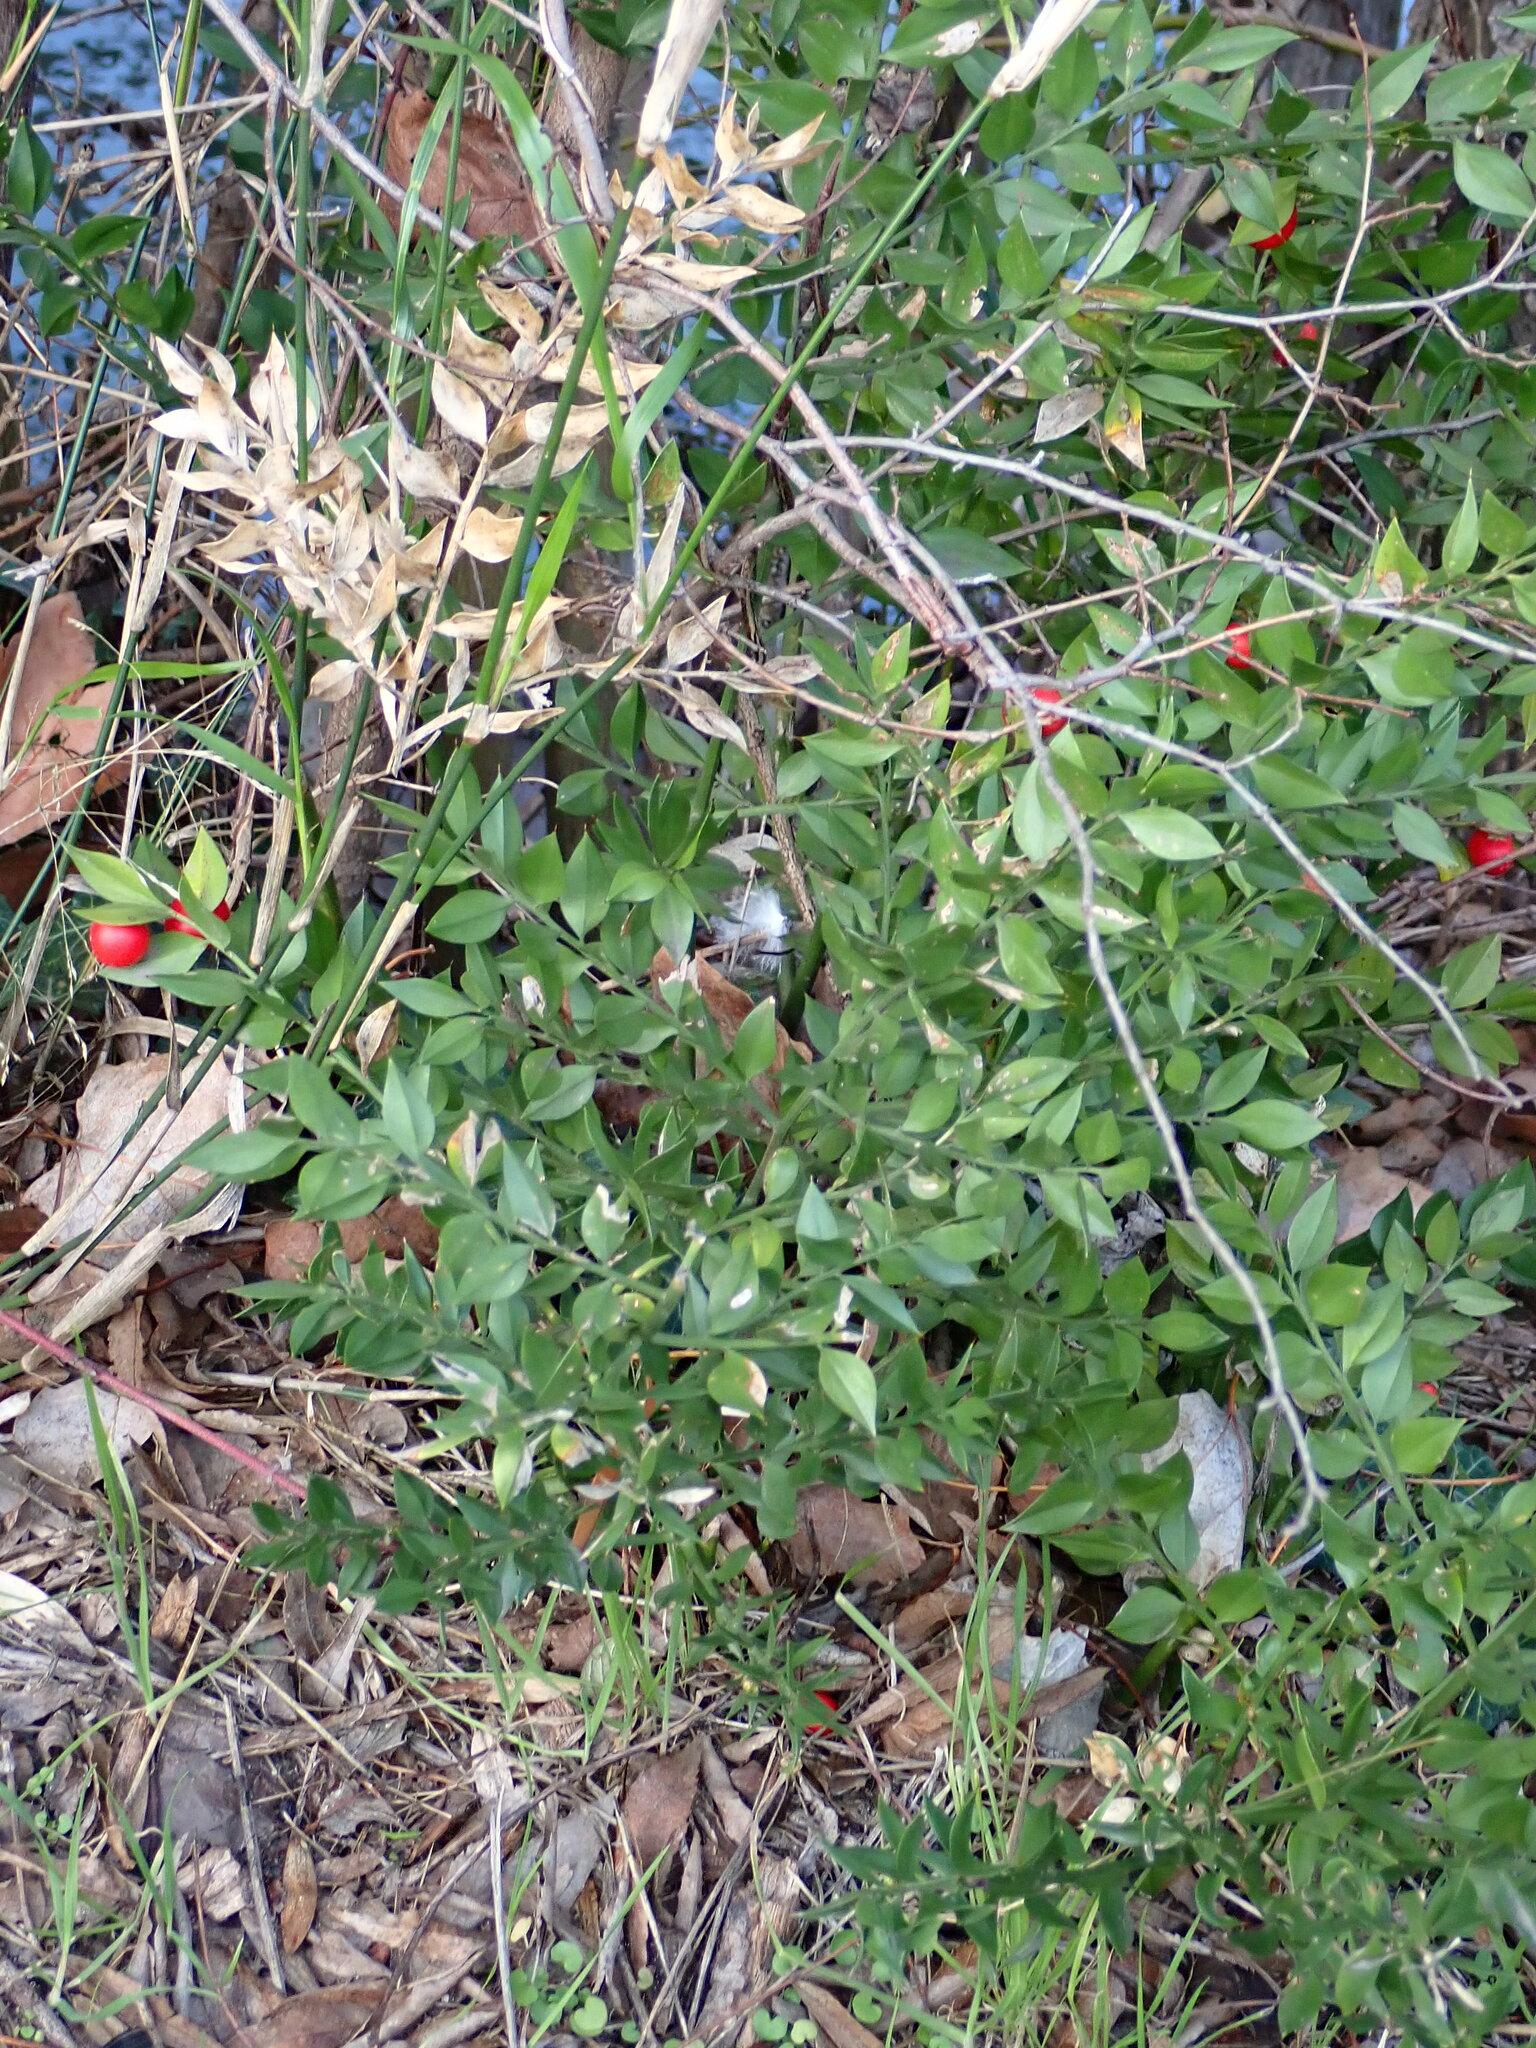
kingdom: Plantae
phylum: Tracheophyta
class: Liliopsida
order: Asparagales
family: Asparagaceae
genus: Ruscus
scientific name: Ruscus aculeatus
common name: Butcher's-broom
